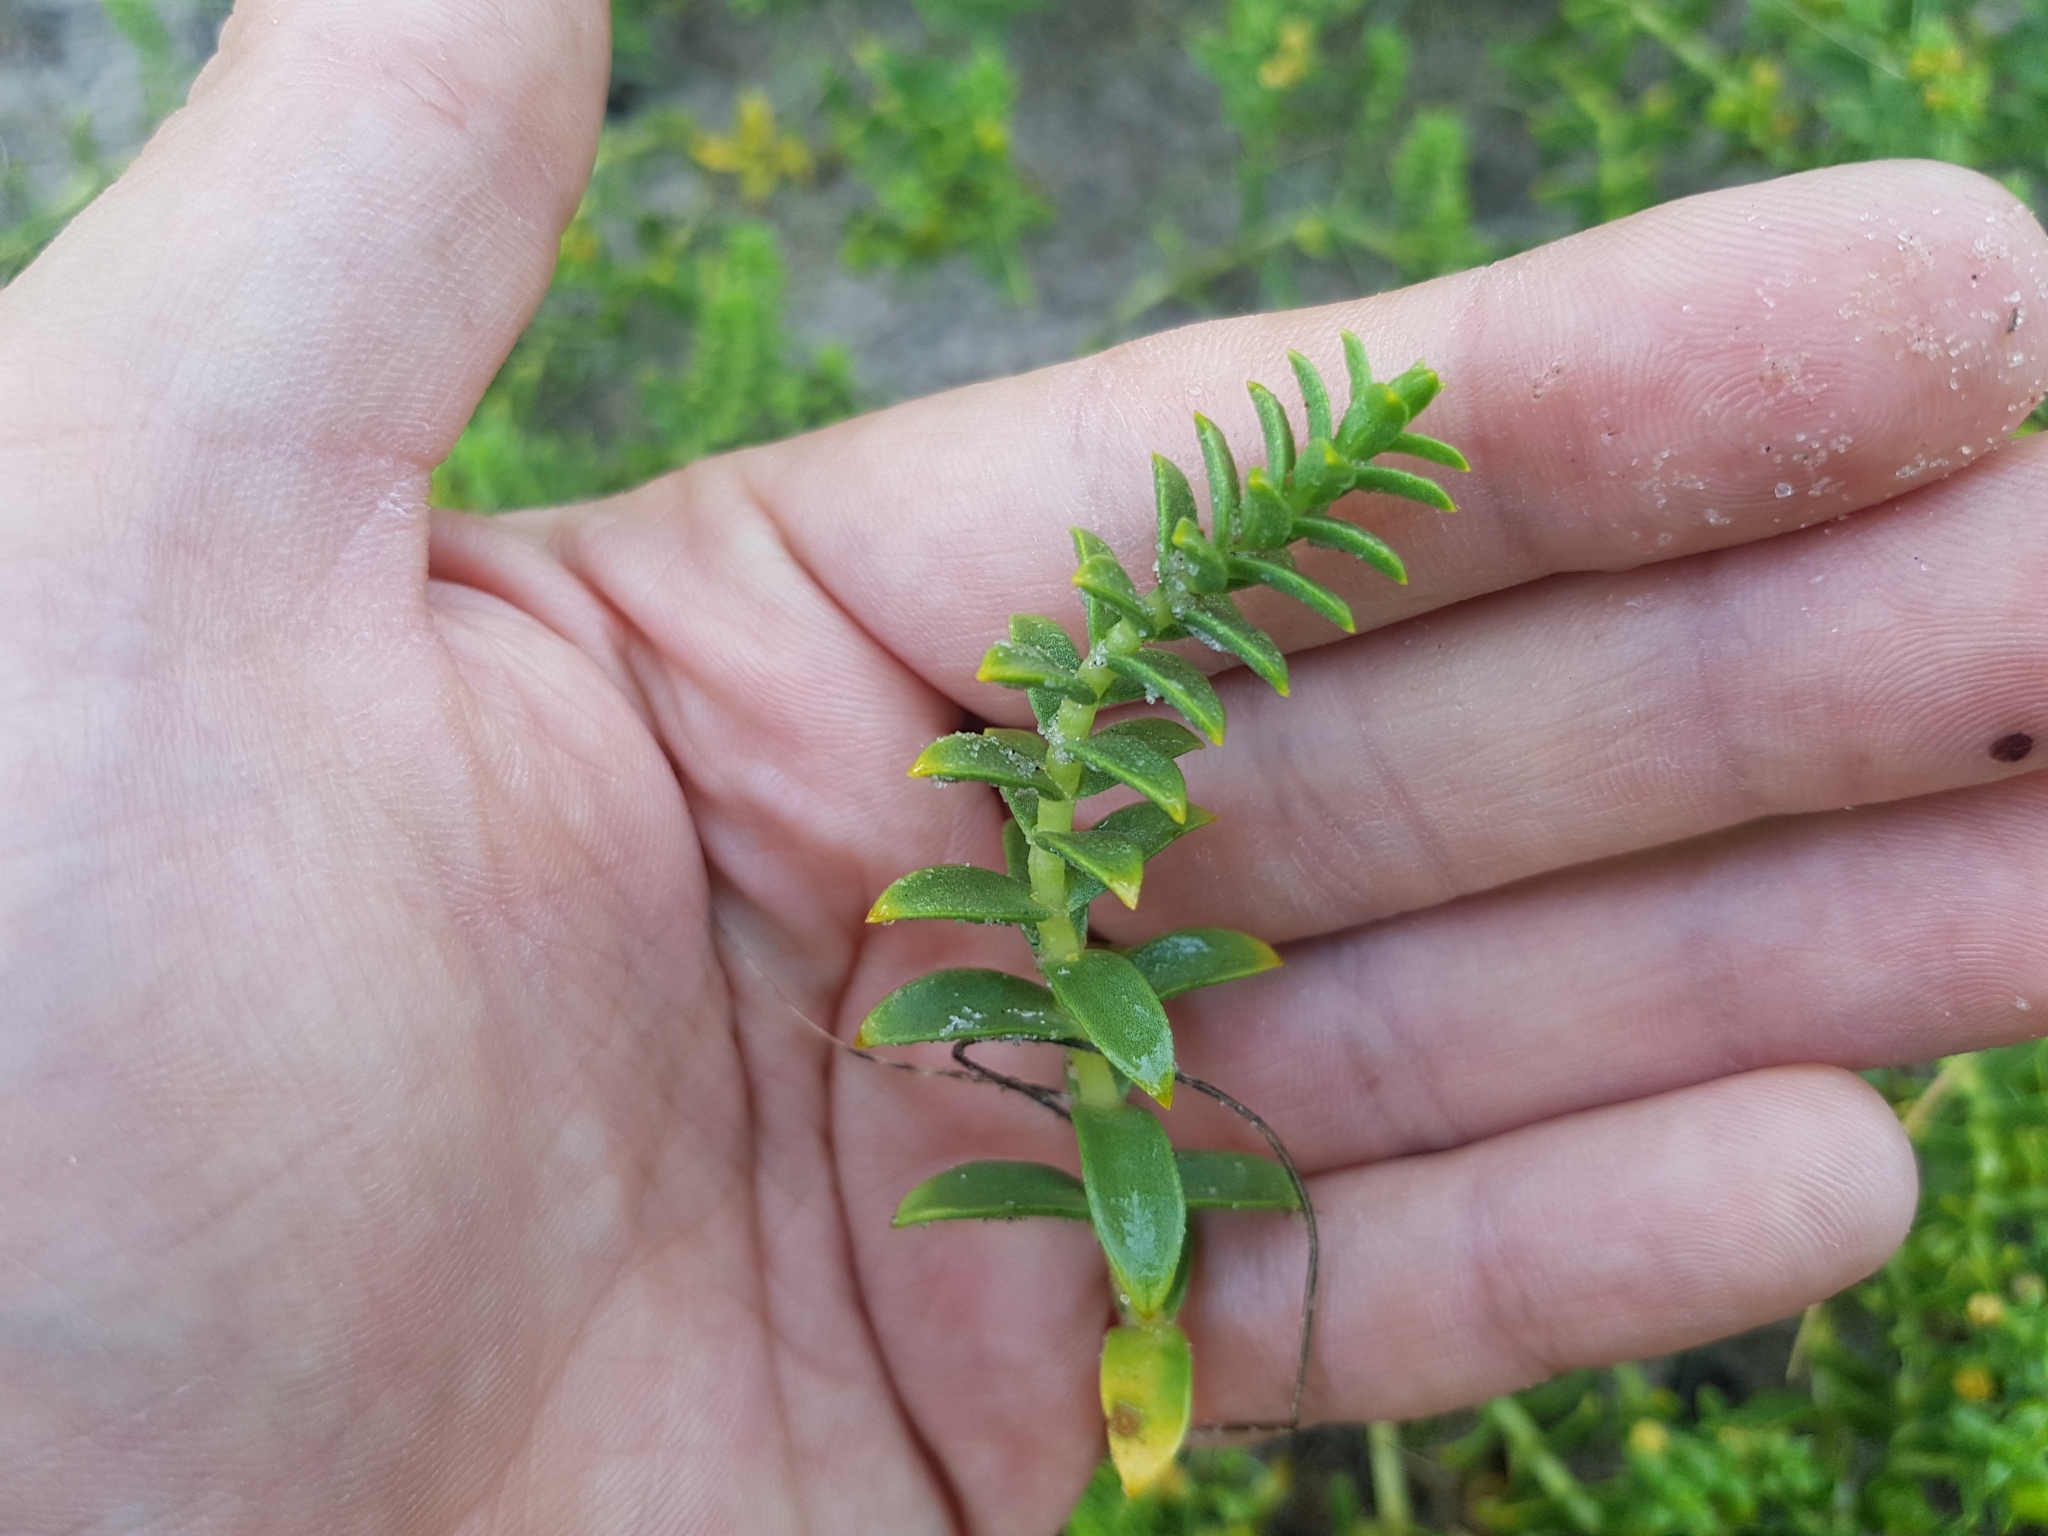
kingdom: Plantae
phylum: Tracheophyta
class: Magnoliopsida
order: Caryophyllales
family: Caryophyllaceae
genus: Honckenya
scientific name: Honckenya peploides
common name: Sea sandwort
